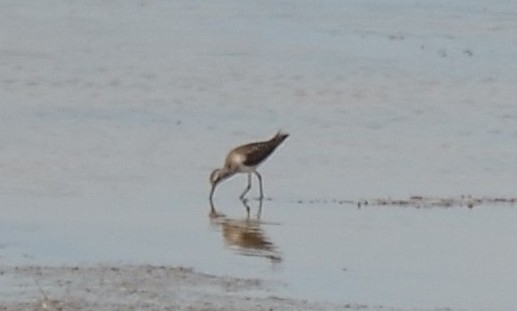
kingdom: Animalia
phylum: Chordata
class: Aves
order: Charadriiformes
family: Scolopacidae
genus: Tringa
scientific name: Tringa glareola
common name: Wood sandpiper
